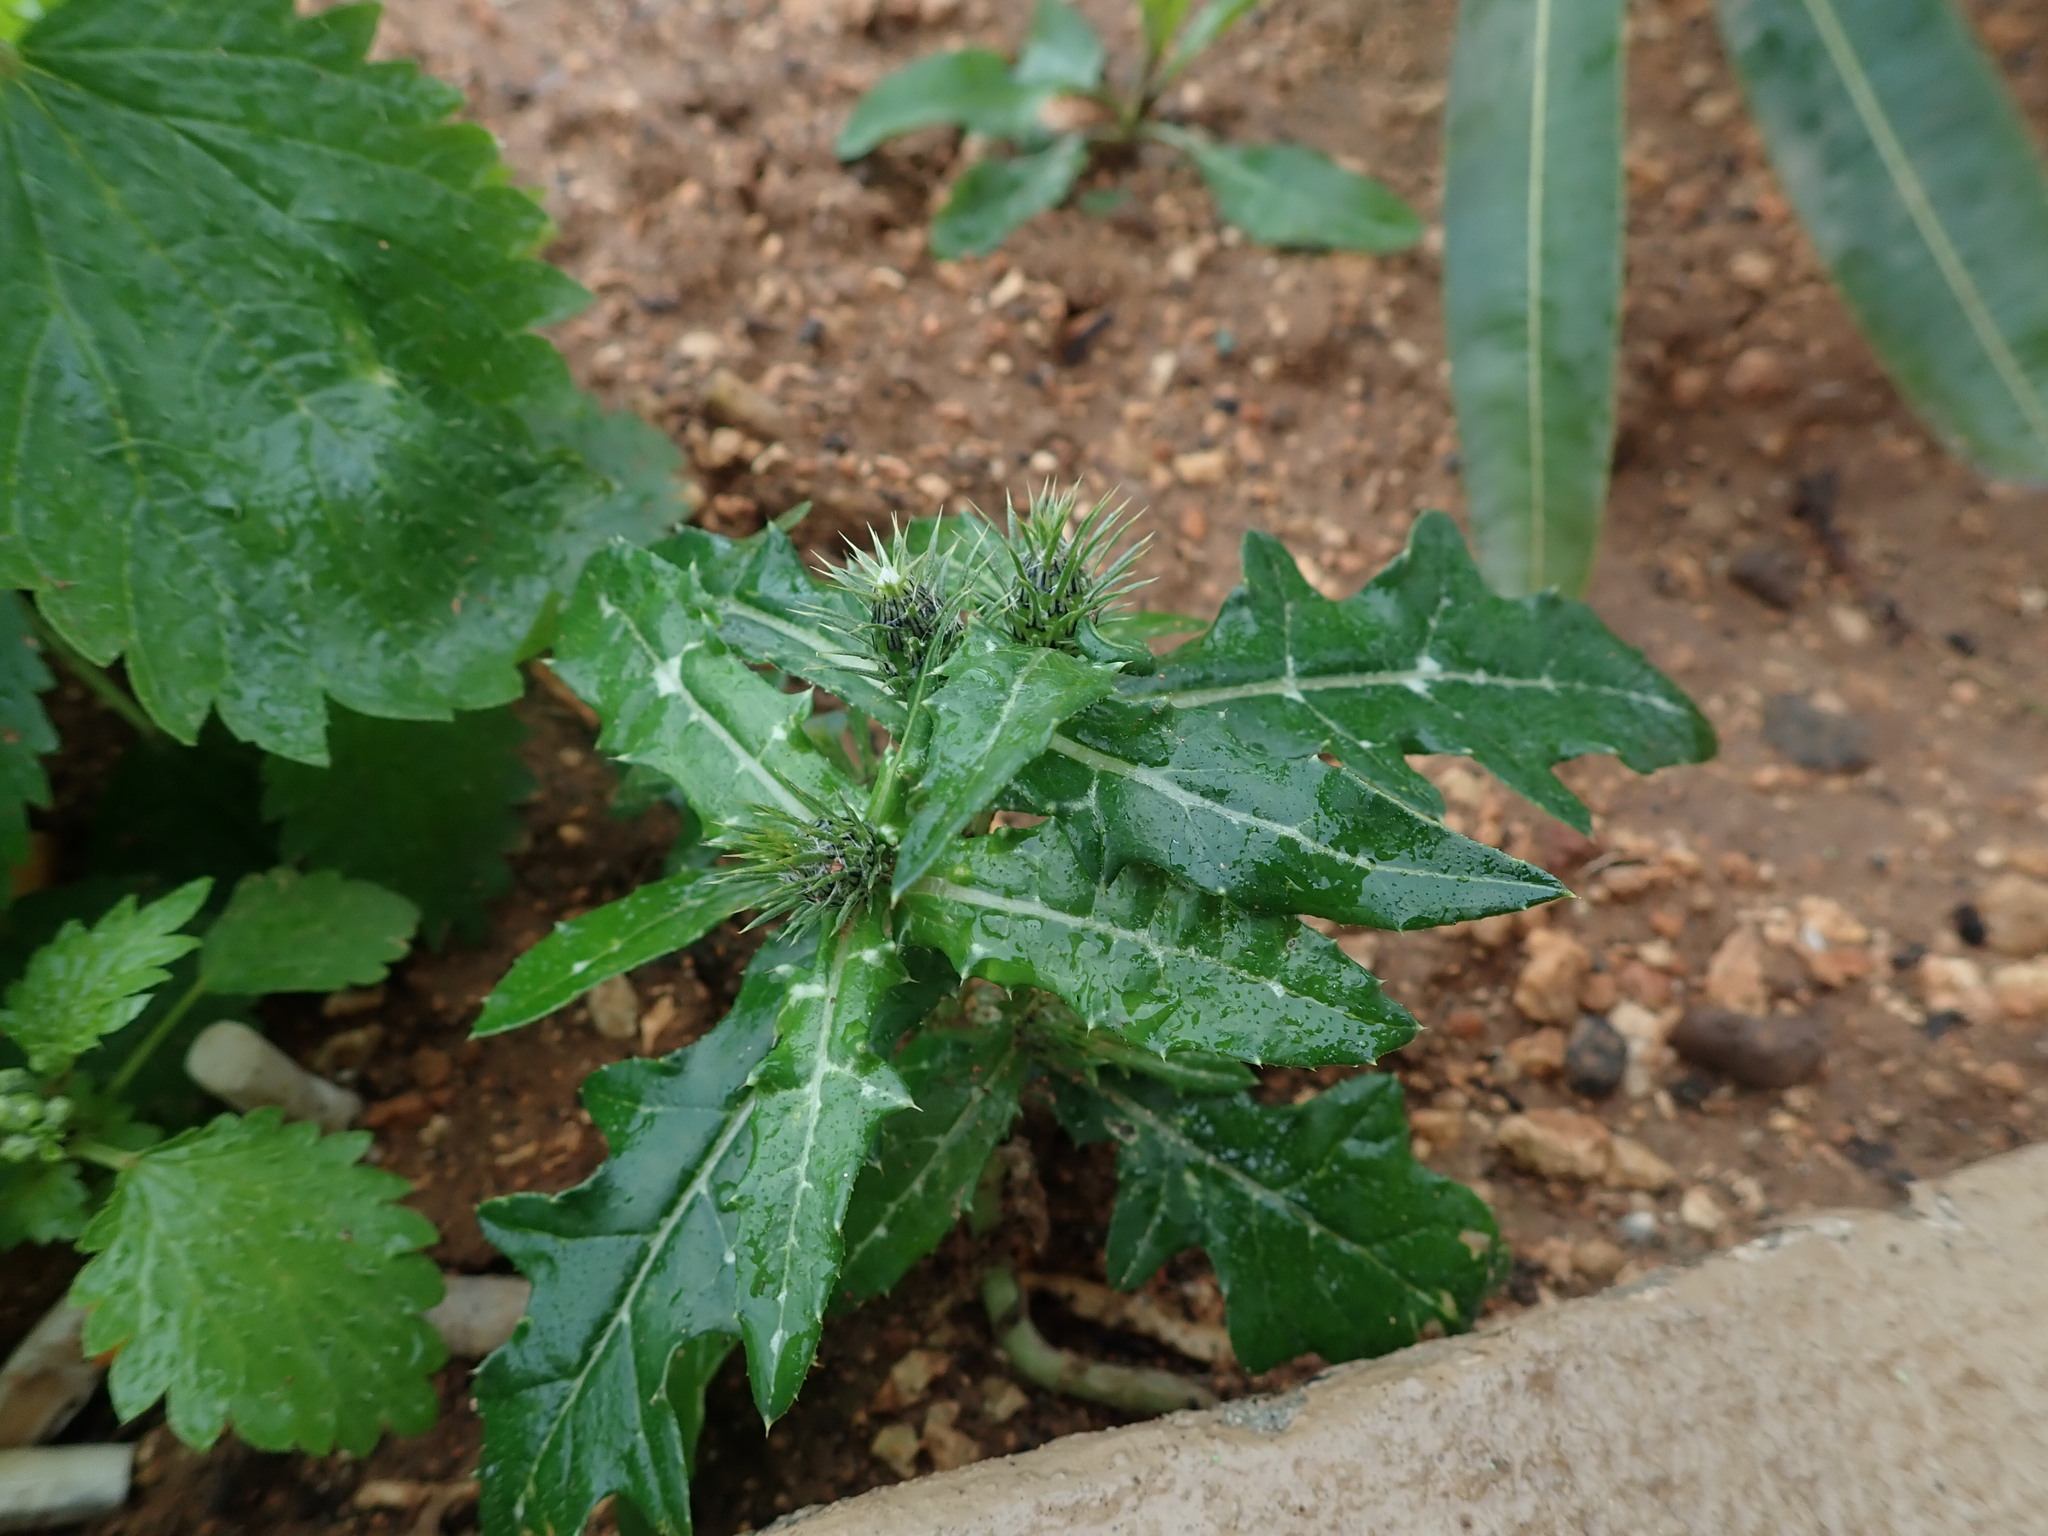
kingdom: Plantae
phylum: Tracheophyta
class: Magnoliopsida
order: Asterales
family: Asteraceae
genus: Galactites
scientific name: Galactites tomentosa
